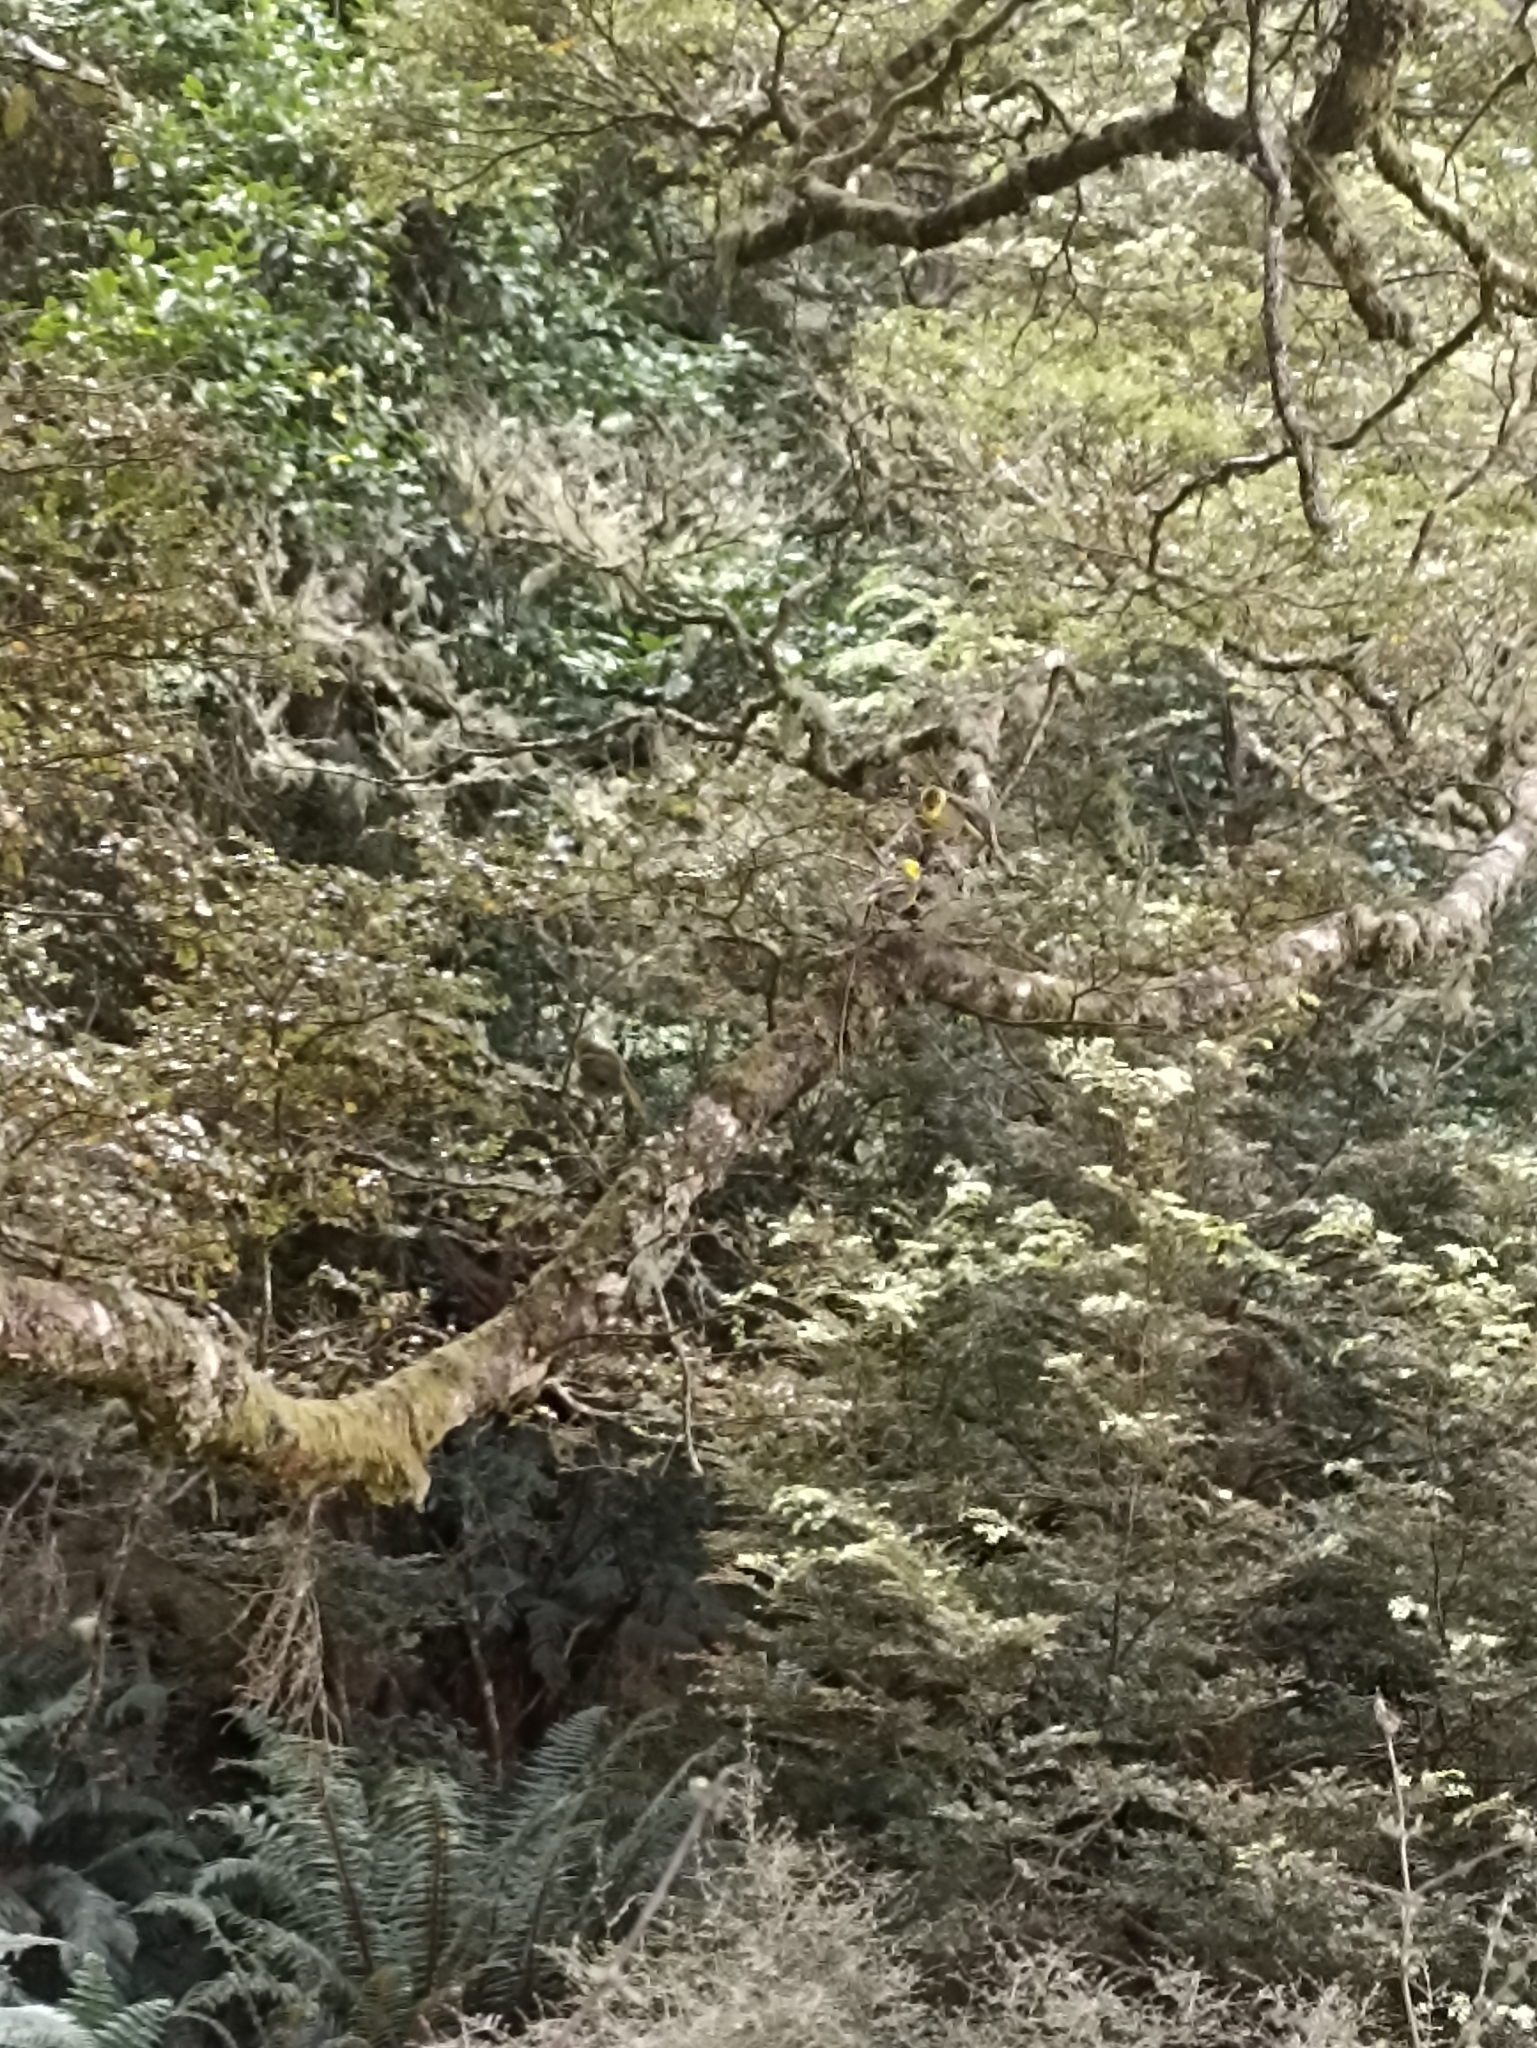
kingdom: Animalia
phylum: Chordata
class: Aves
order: Passeriformes
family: Acanthizidae
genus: Mohoua
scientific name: Mohoua ochrocephala
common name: Yellowhead
